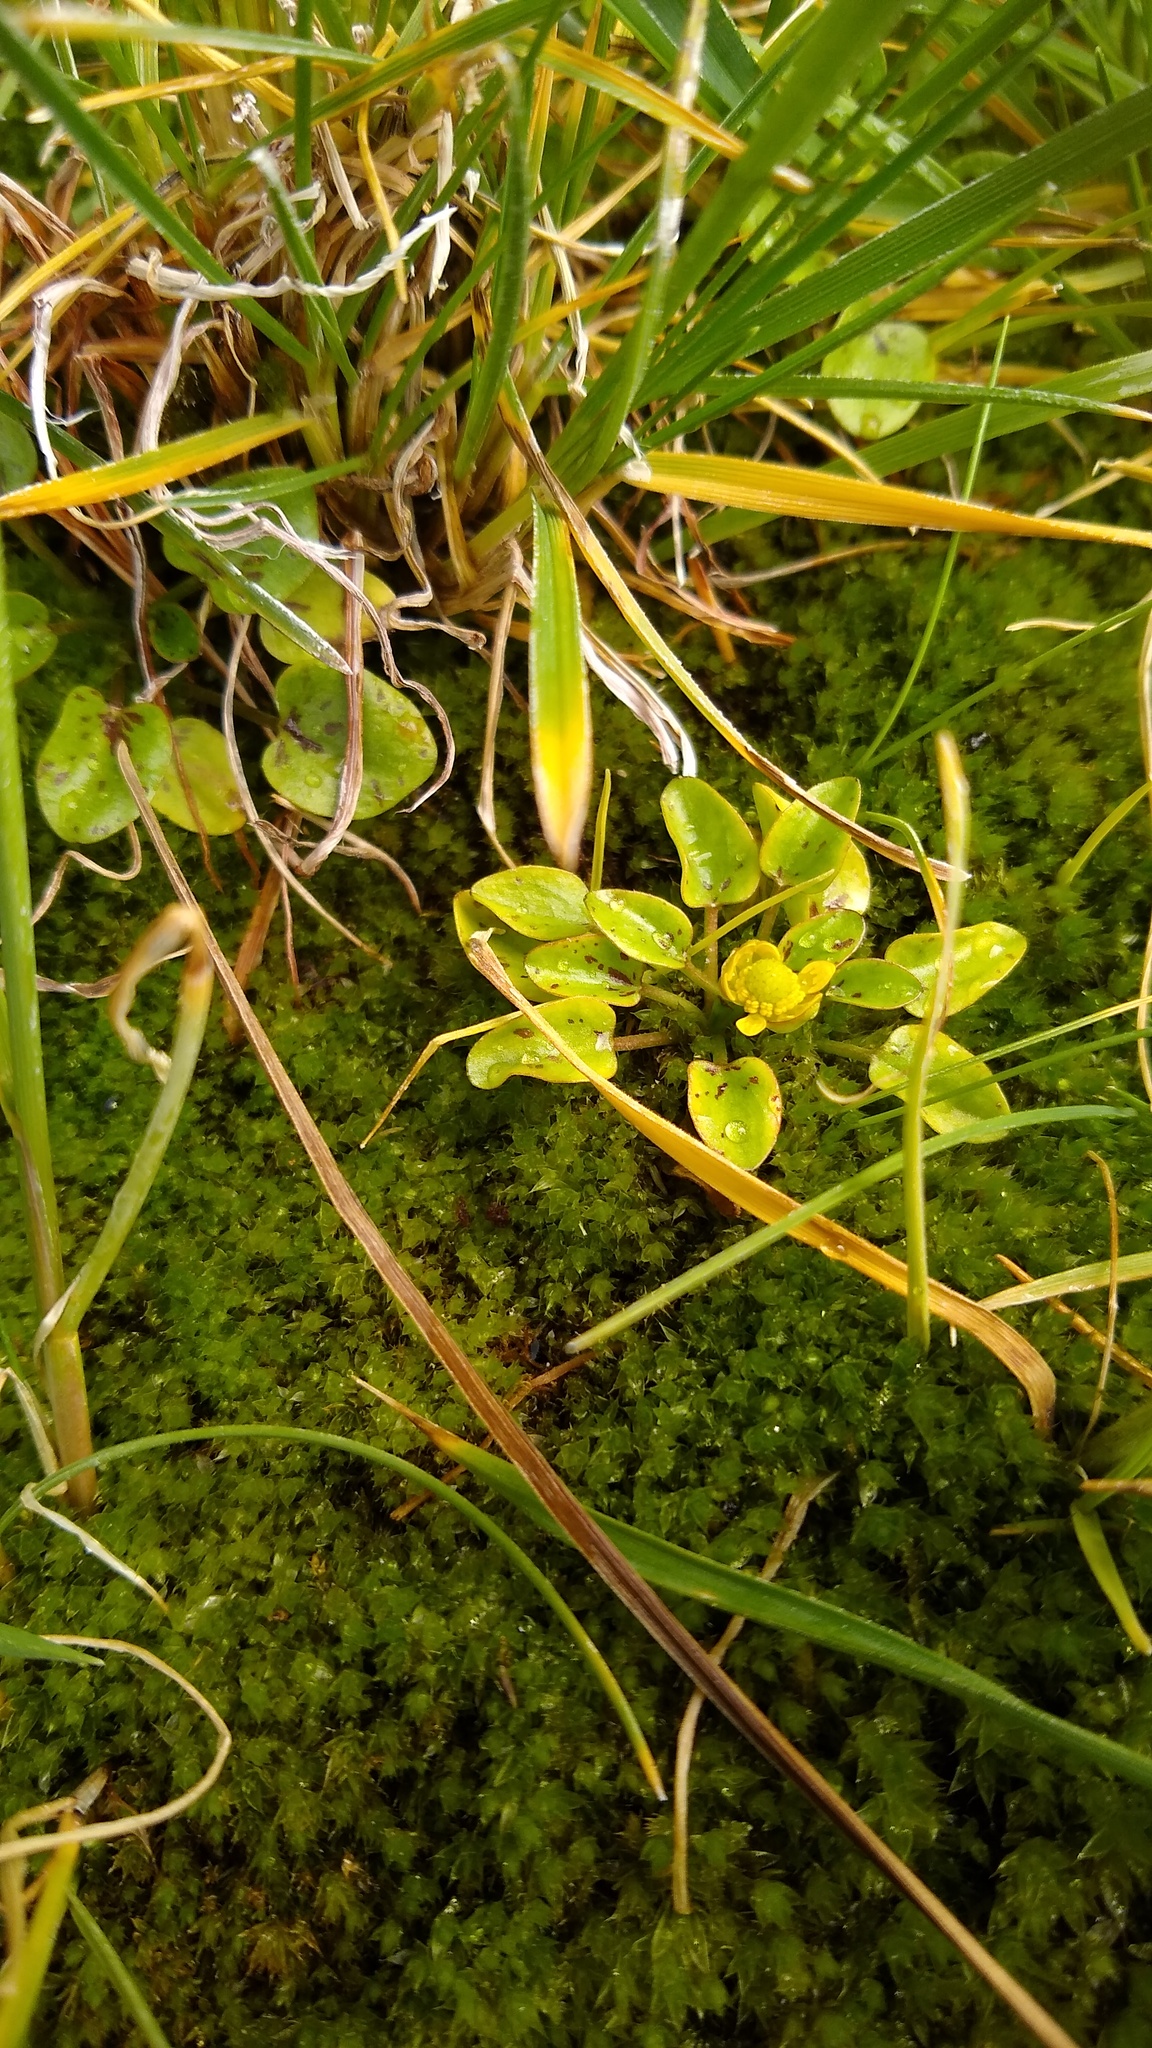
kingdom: Plantae
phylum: Tracheophyta
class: Magnoliopsida
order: Ranunculales
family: Ranunculaceae
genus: Halerpestes
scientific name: Halerpestes uniflora
